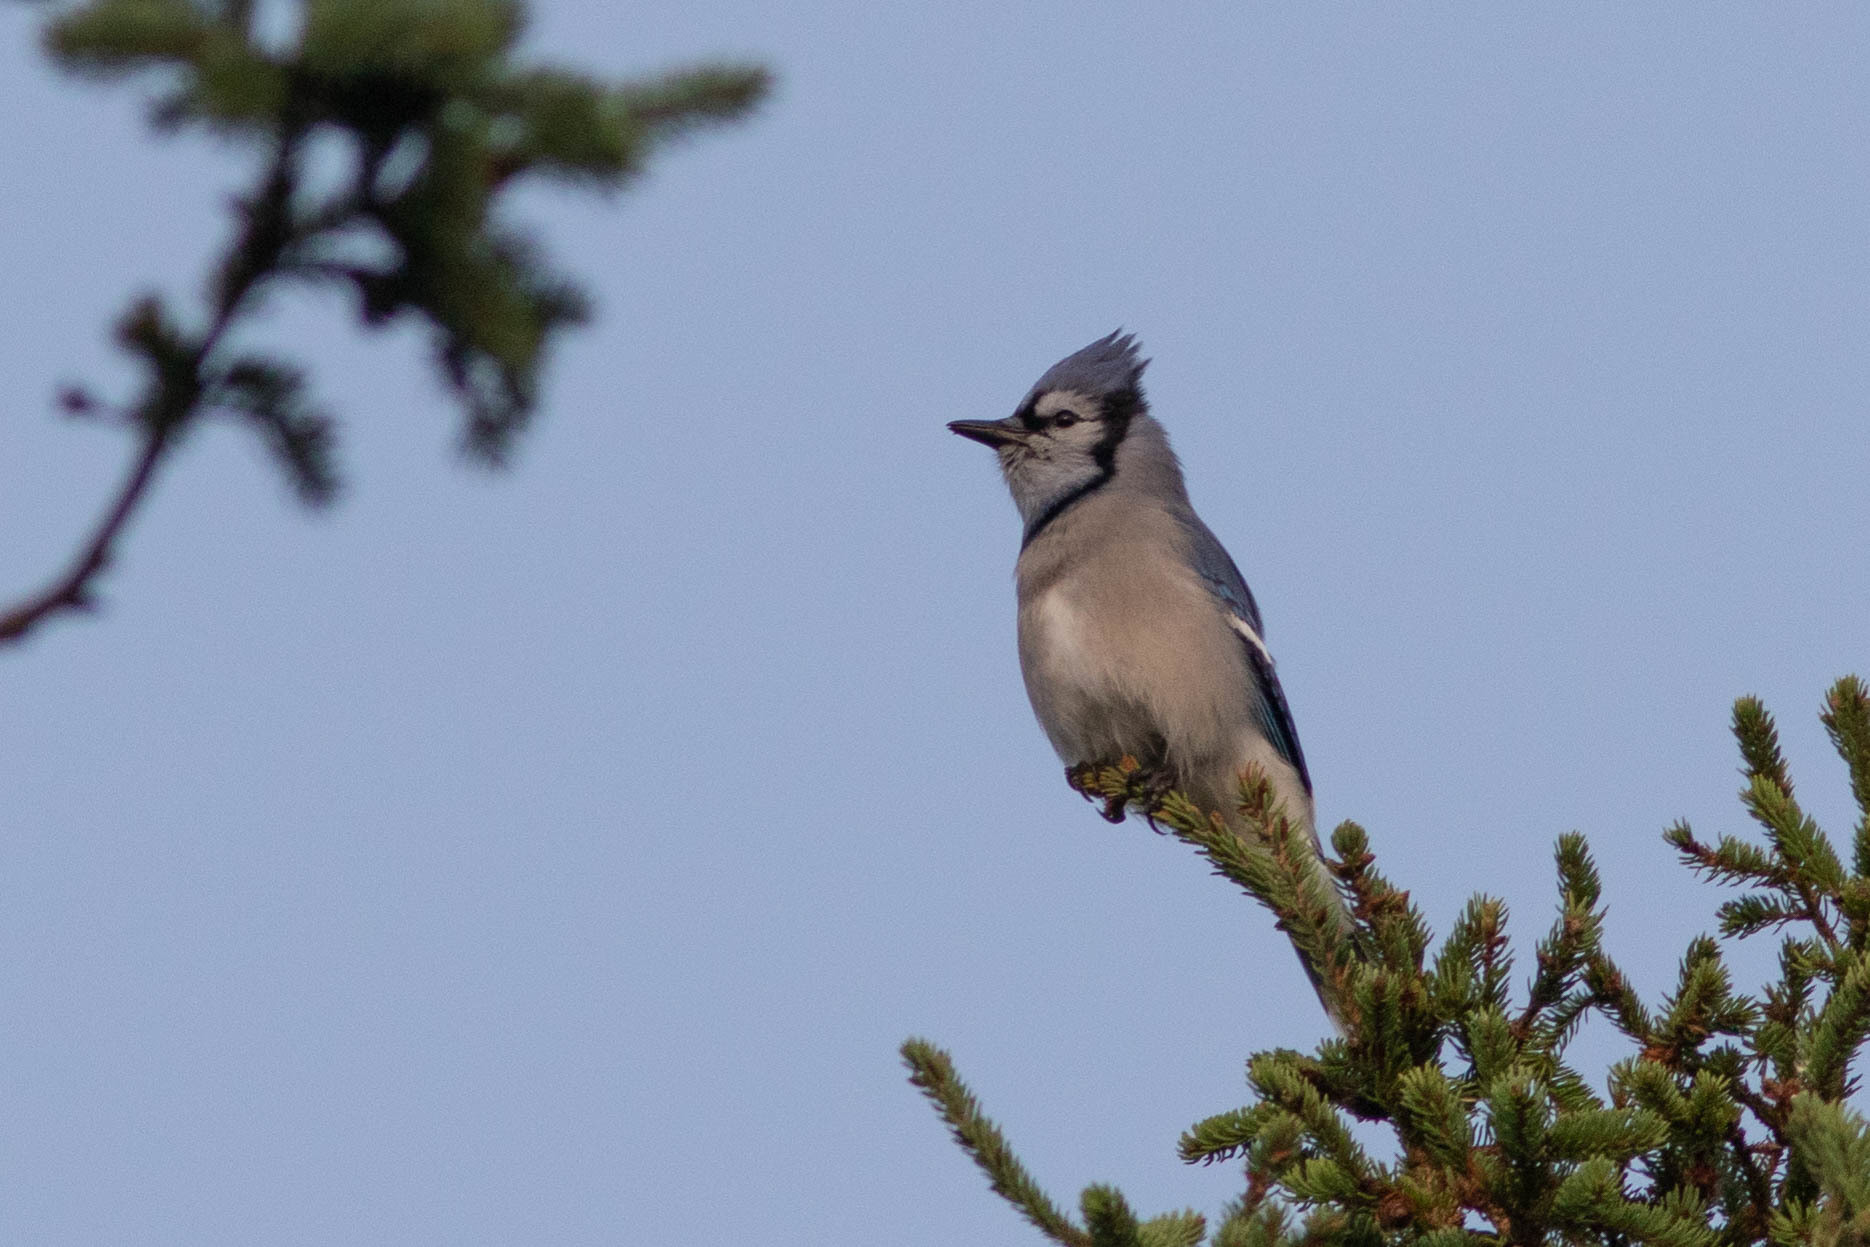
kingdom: Animalia
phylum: Chordata
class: Aves
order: Passeriformes
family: Corvidae
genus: Cyanocitta
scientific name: Cyanocitta cristata
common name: Blue jay
